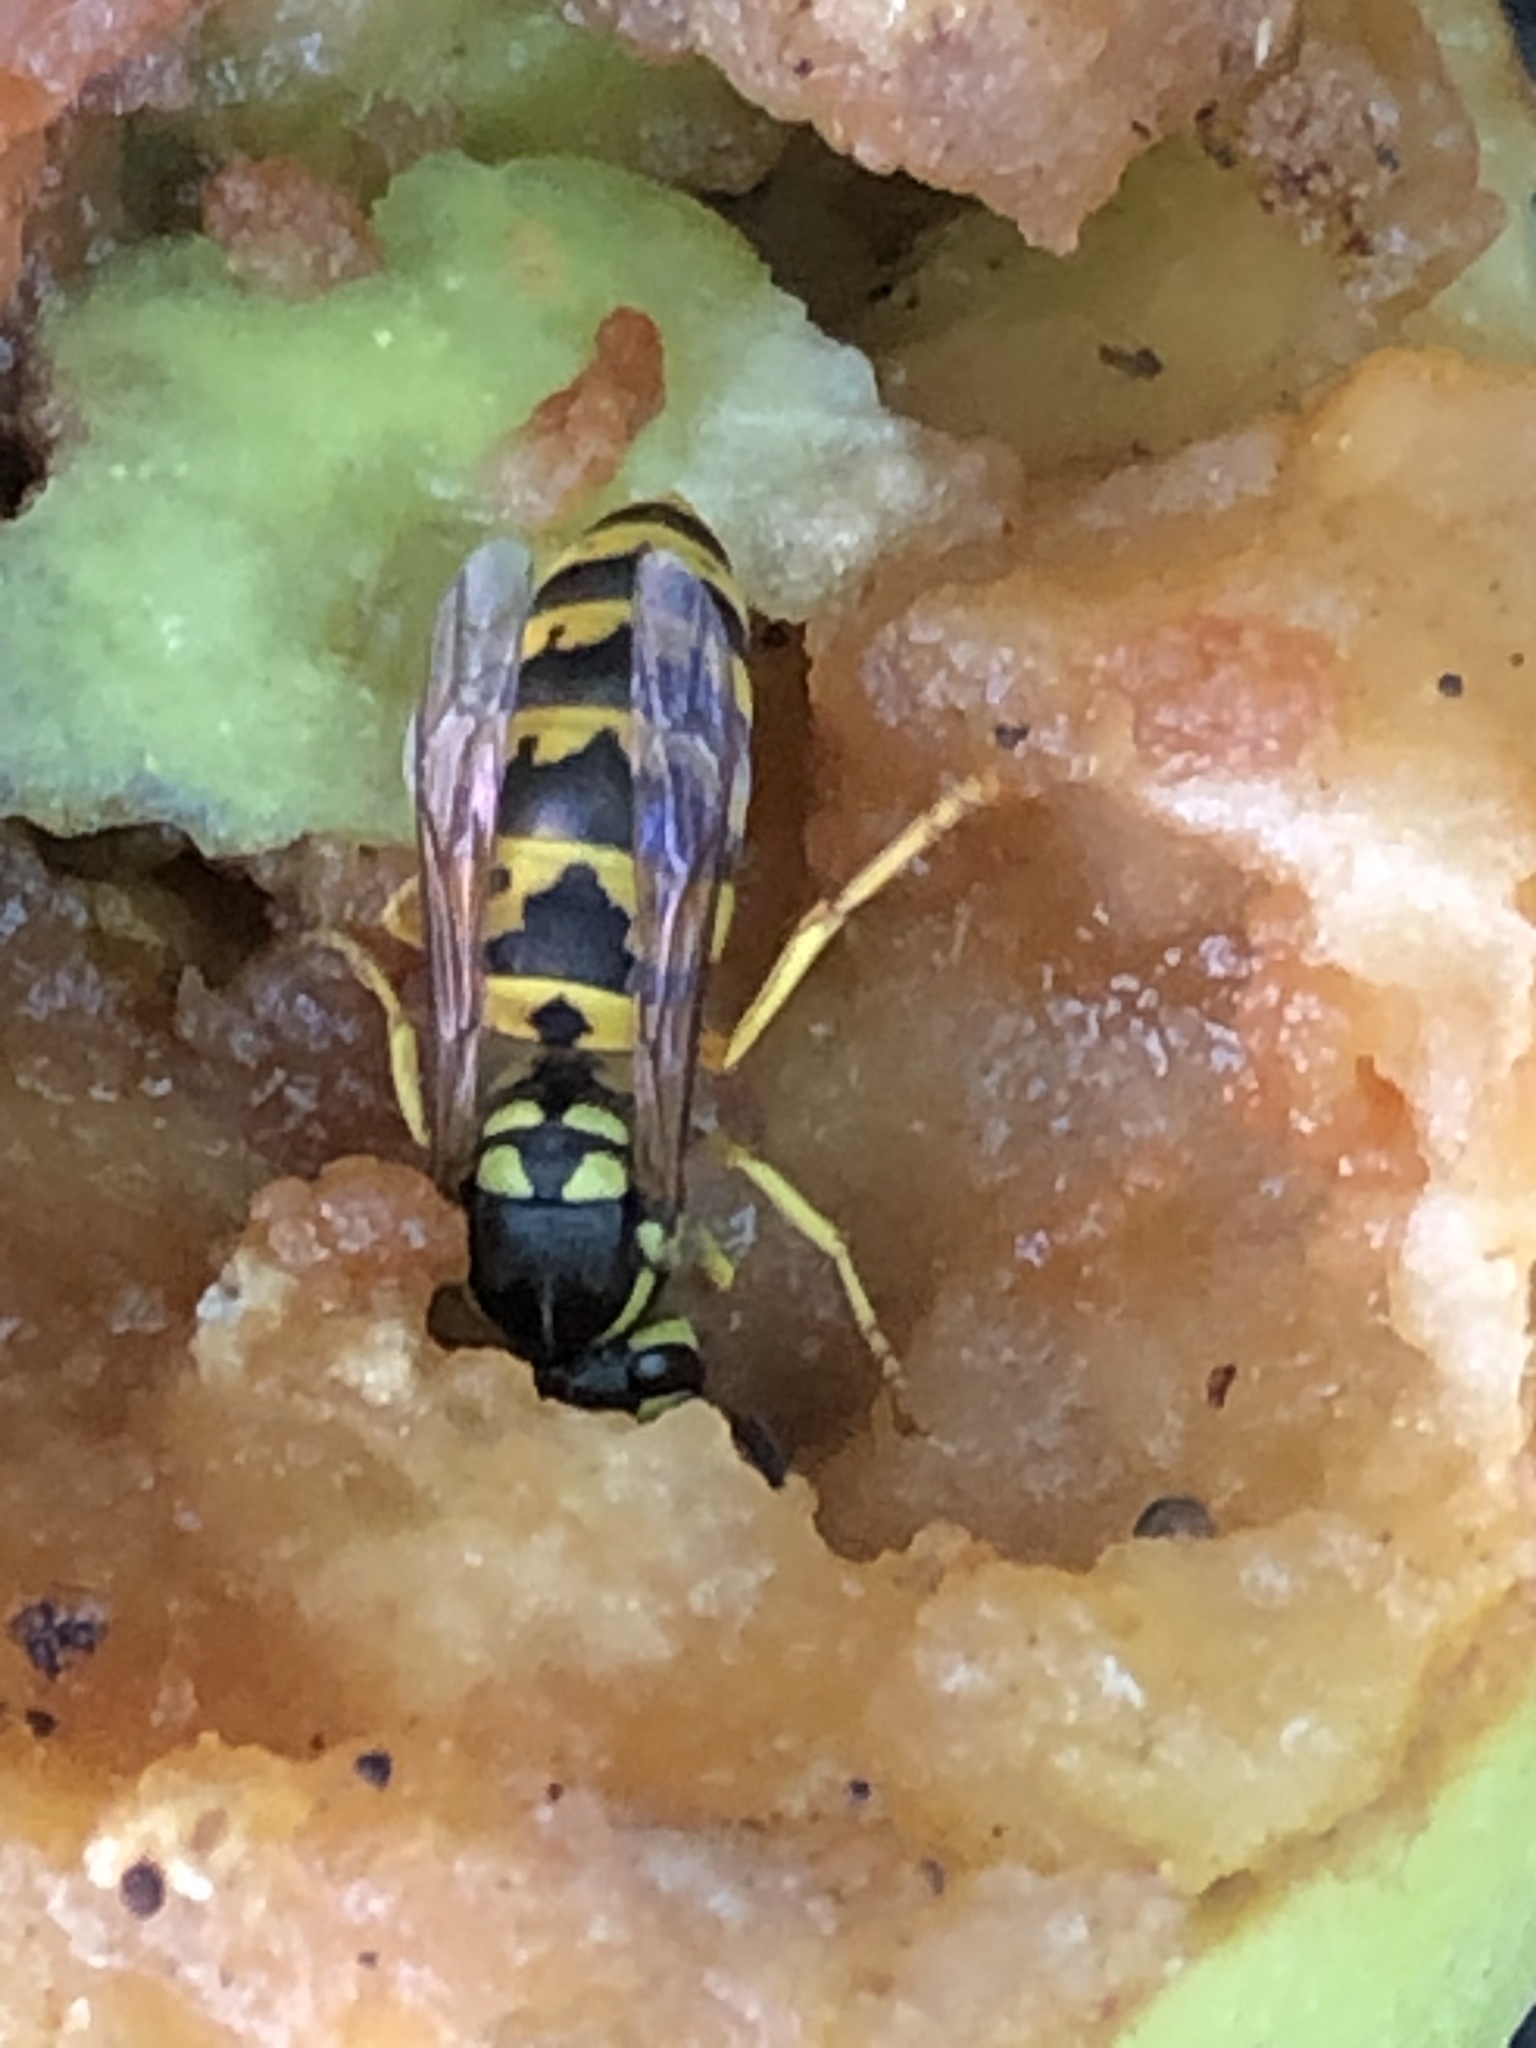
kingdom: Animalia
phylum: Arthropoda
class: Insecta
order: Hymenoptera
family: Vespidae
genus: Vespula
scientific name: Vespula germanica
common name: German wasp
